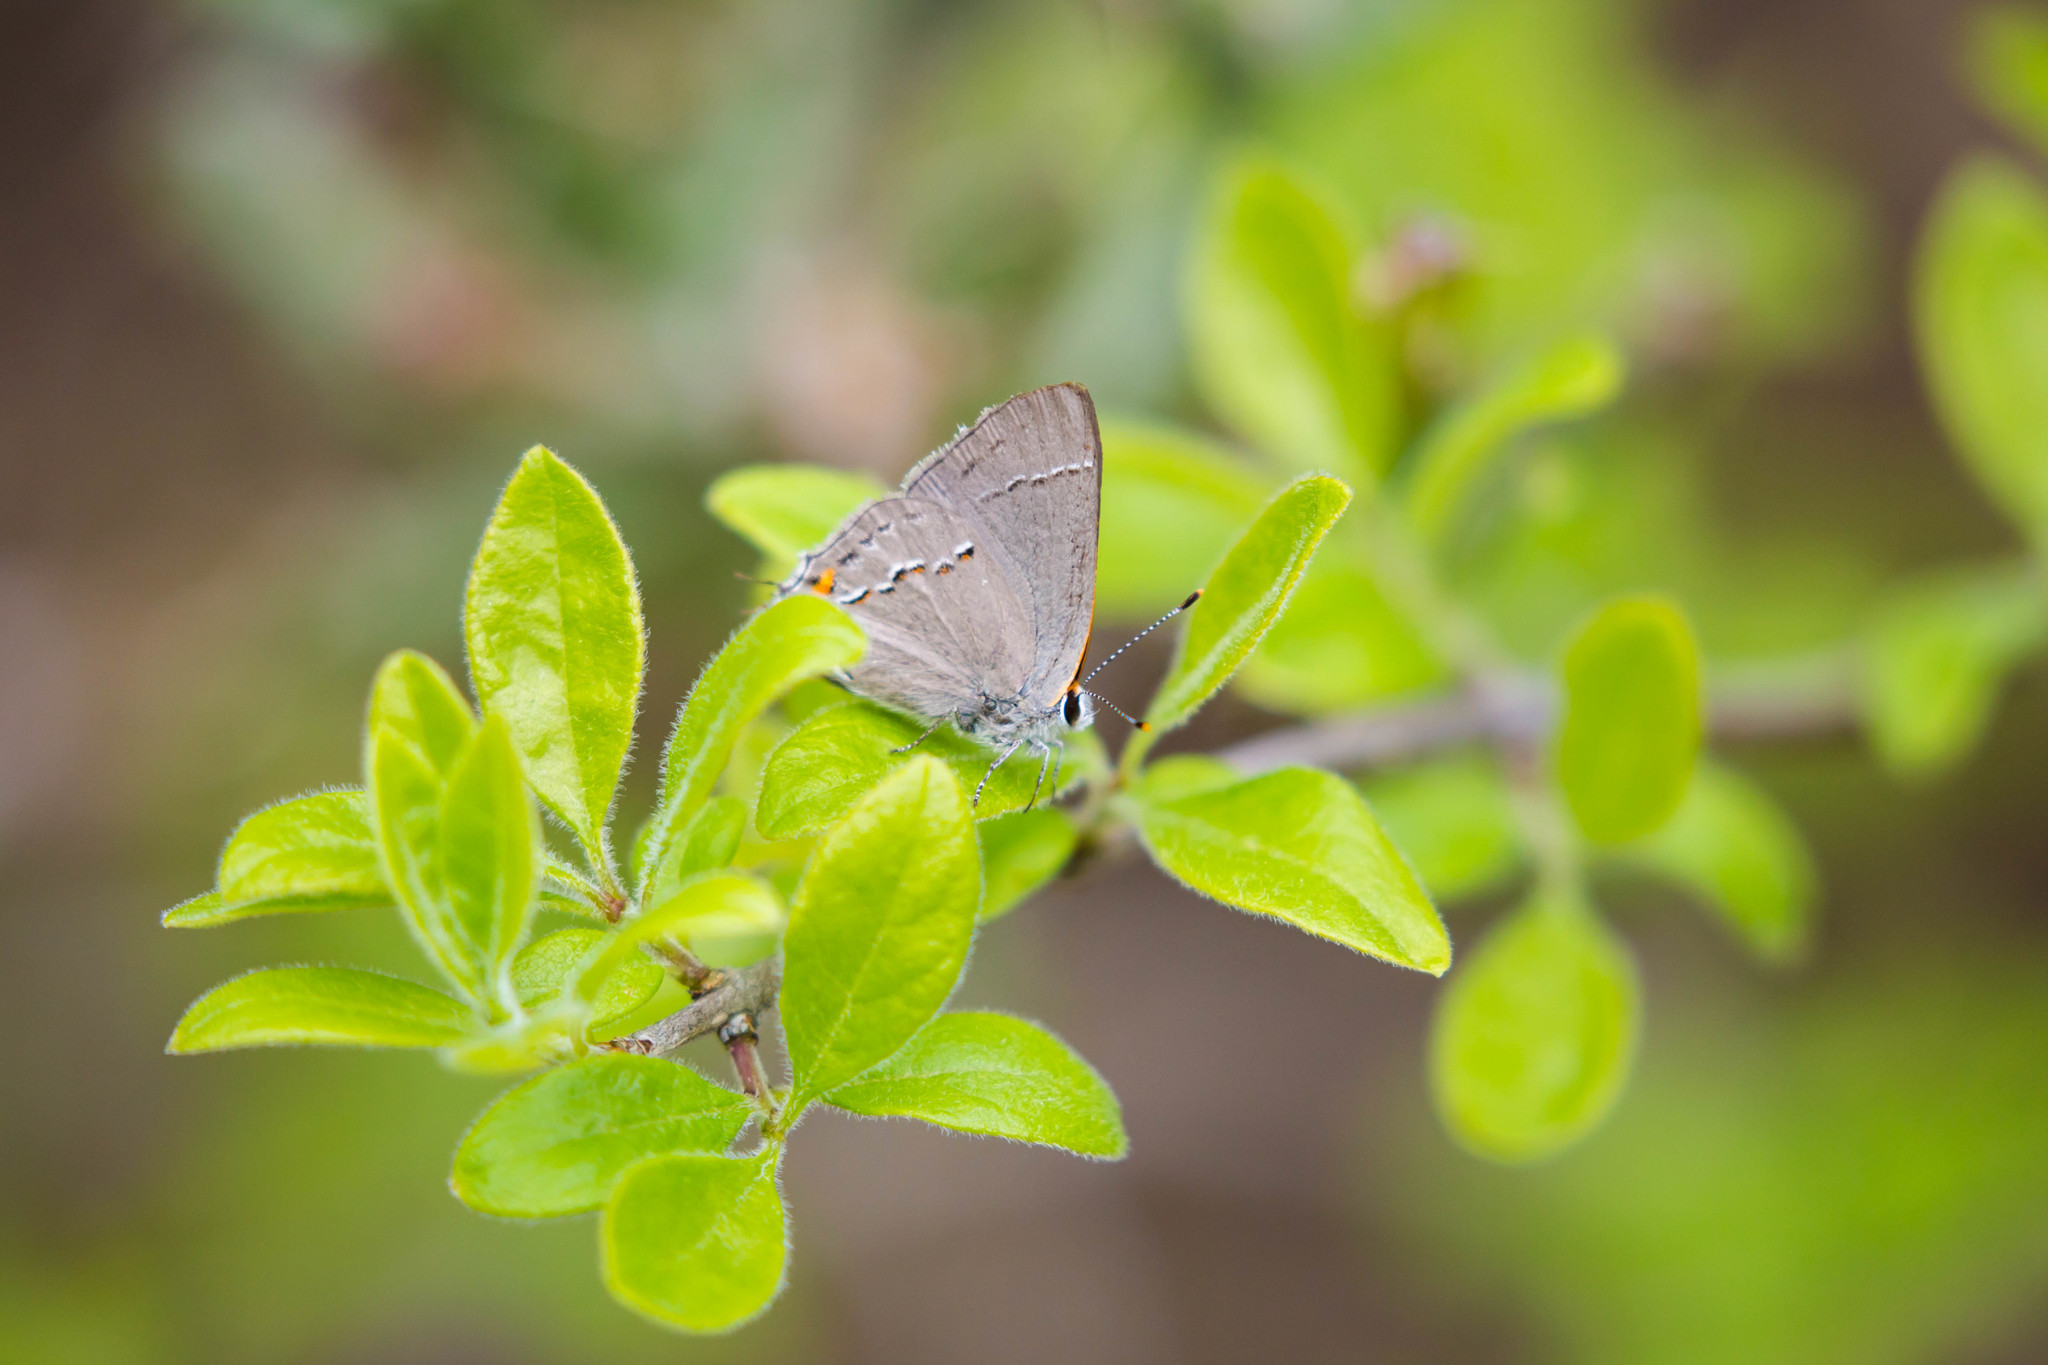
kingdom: Animalia
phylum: Arthropoda
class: Insecta
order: Lepidoptera
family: Lycaenidae
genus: Strymon
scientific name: Strymon melinus
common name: Gray hairstreak
